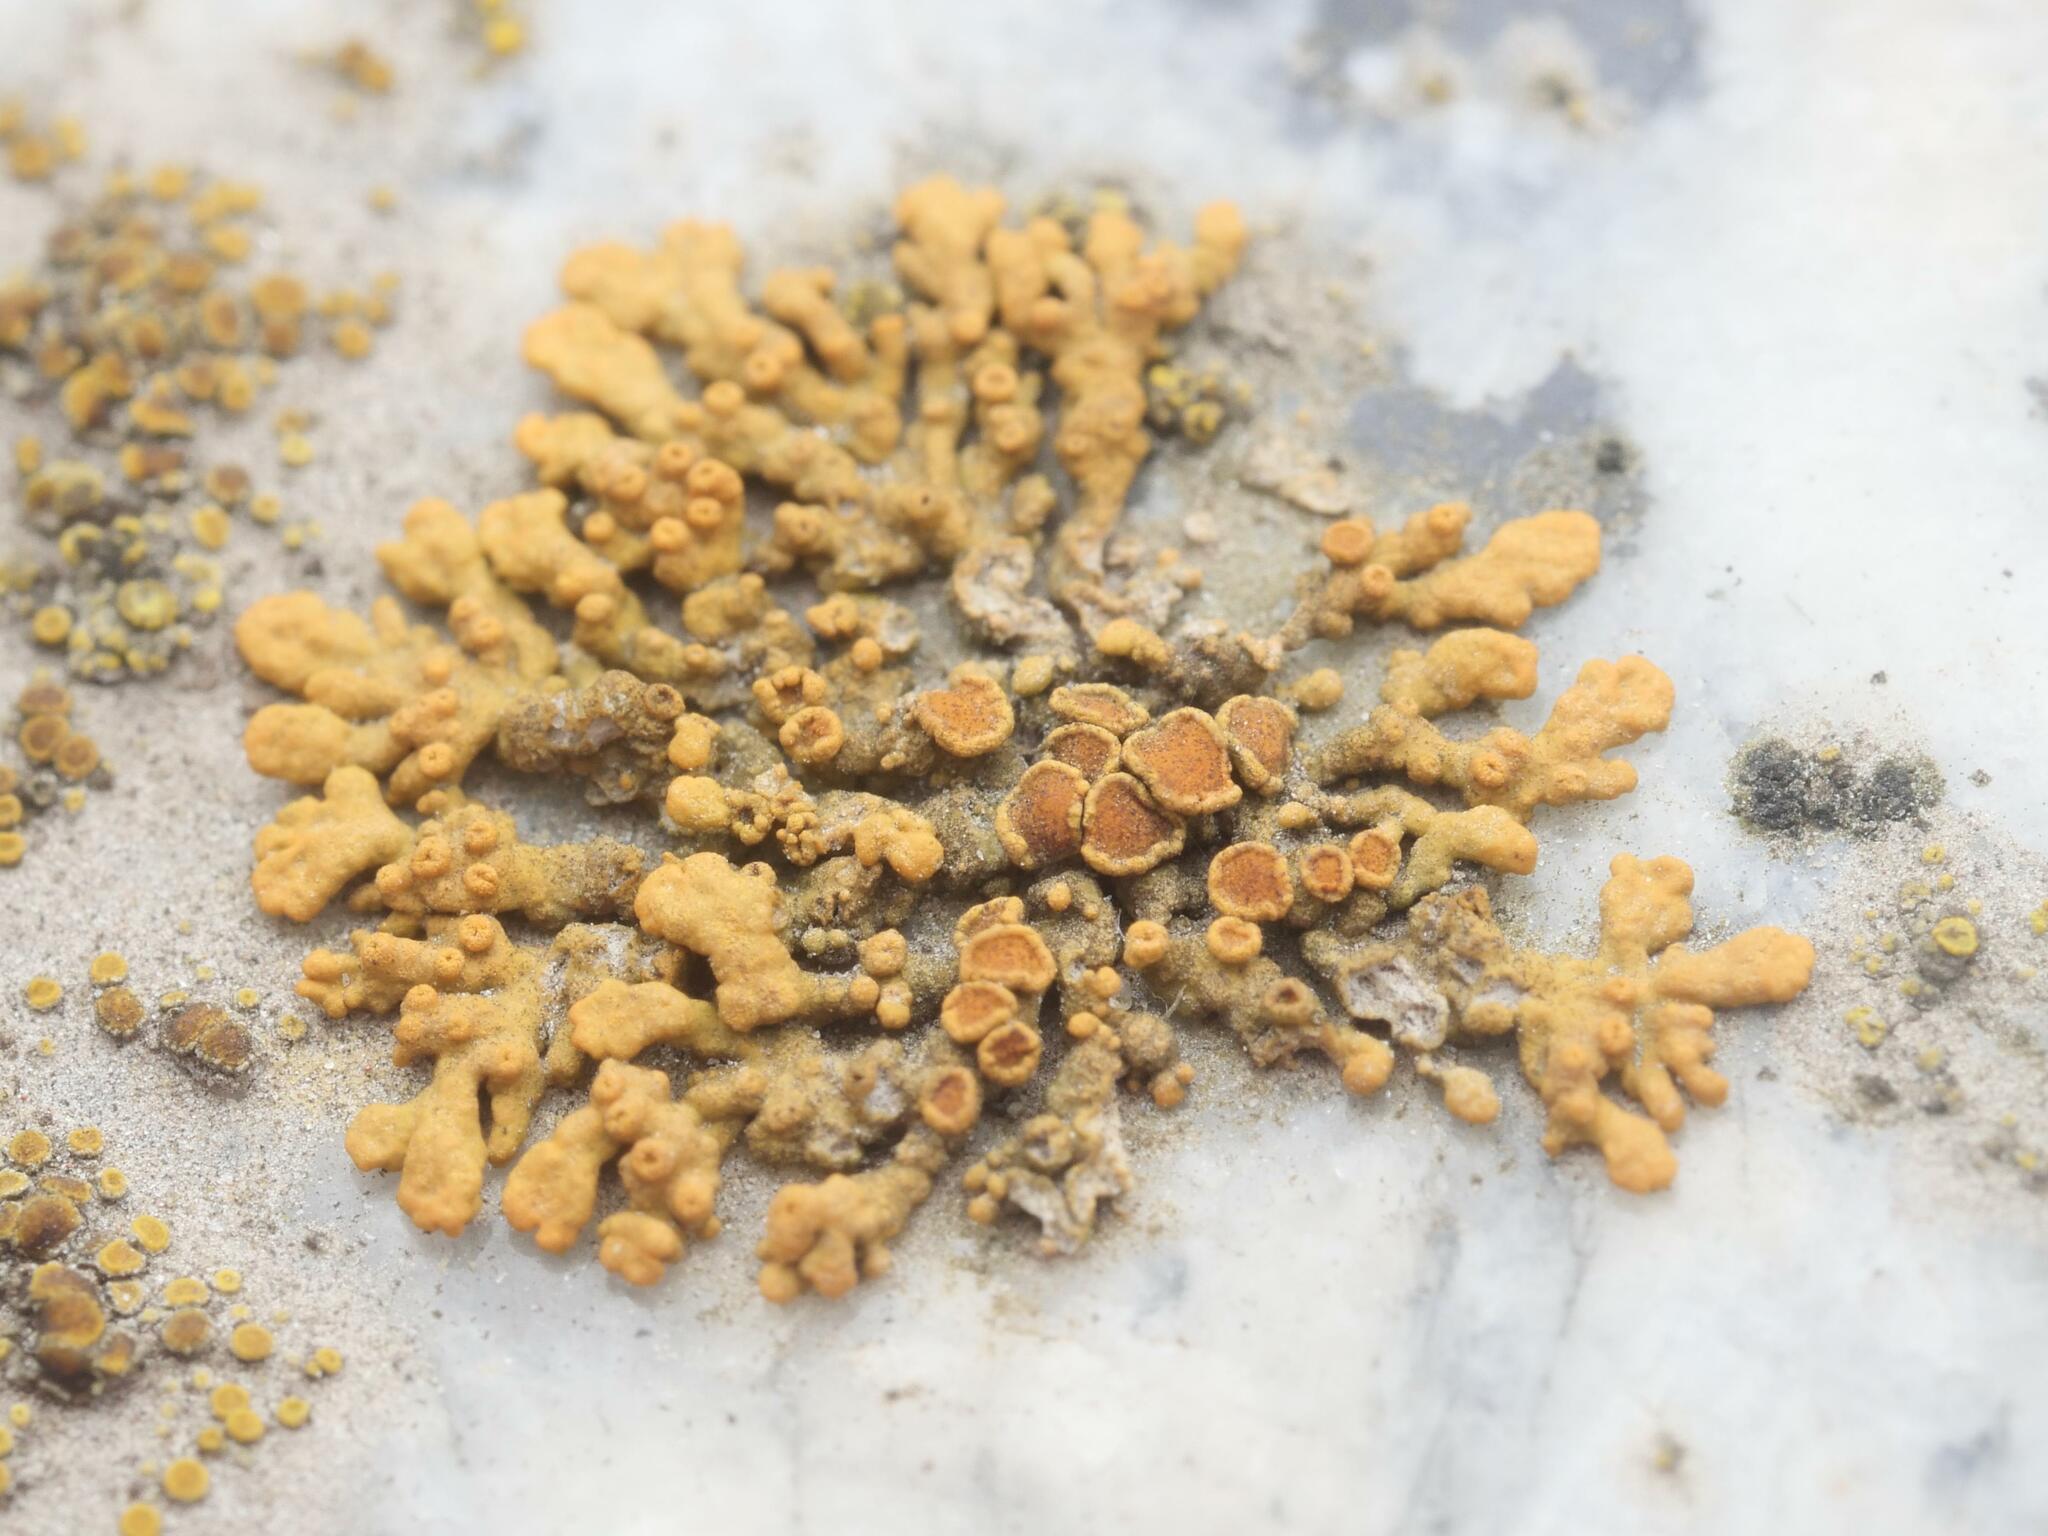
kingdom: Fungi
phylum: Ascomycota
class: Lecanoromycetes
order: Teloschistales
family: Teloschistaceae
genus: Xanthoria
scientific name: Xanthoria elegans
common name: Elegant sunburst lichen
